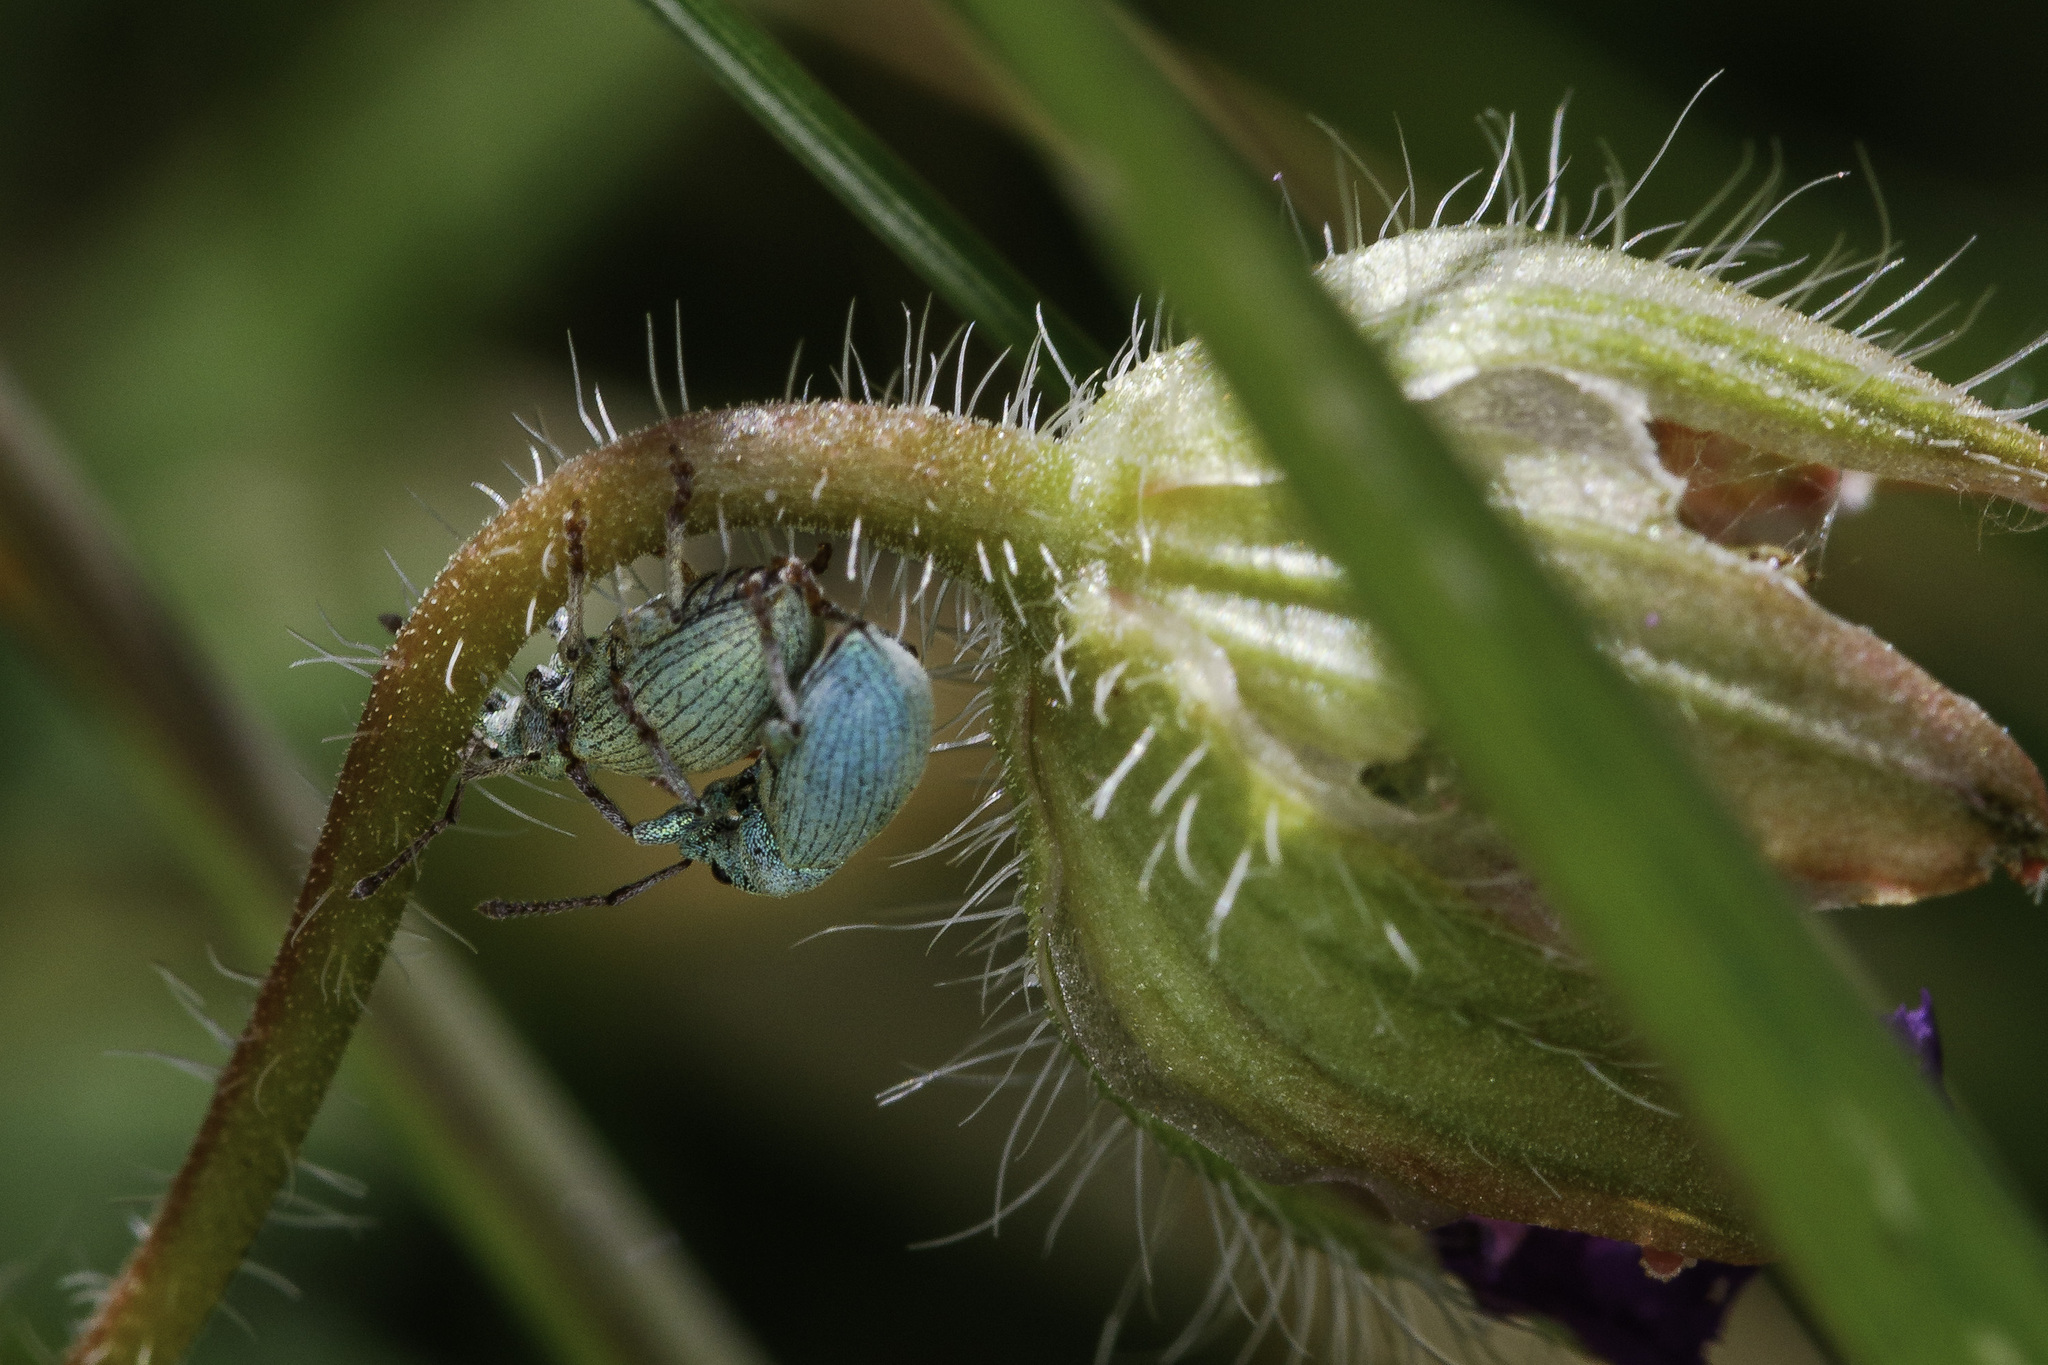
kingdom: Animalia
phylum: Arthropoda
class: Insecta
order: Coleoptera
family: Curculionidae
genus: Phyllobius
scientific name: Phyllobius virideaeris
